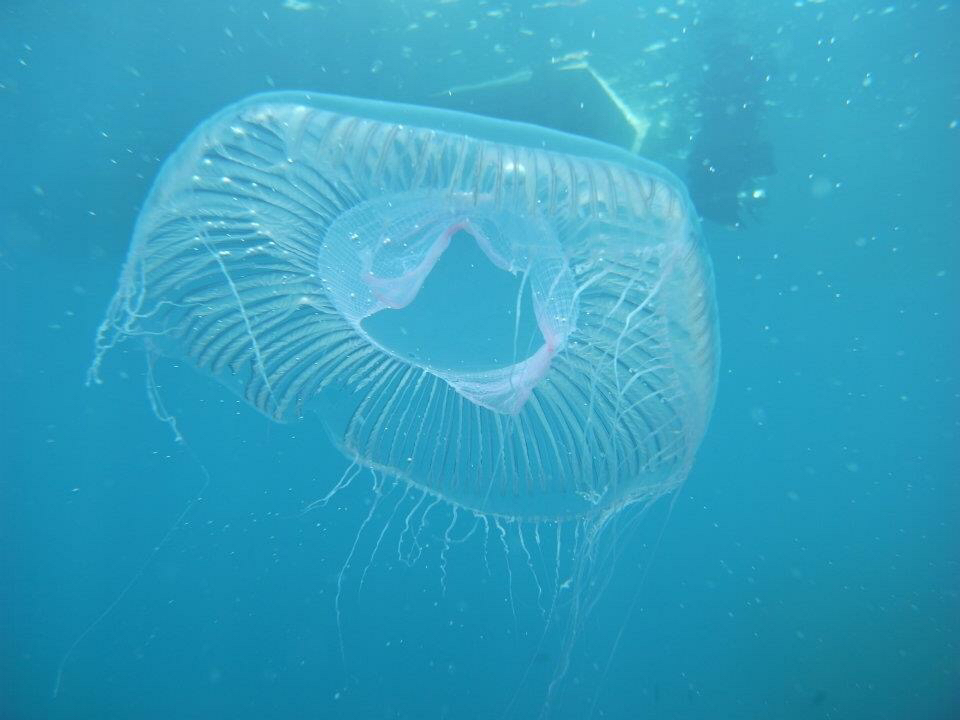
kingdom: Animalia
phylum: Cnidaria
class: Hydrozoa
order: Leptothecata
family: Aequoreidae
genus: Aequorea
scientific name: Aequorea forskalea
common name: Many-ribbed jellyfish
